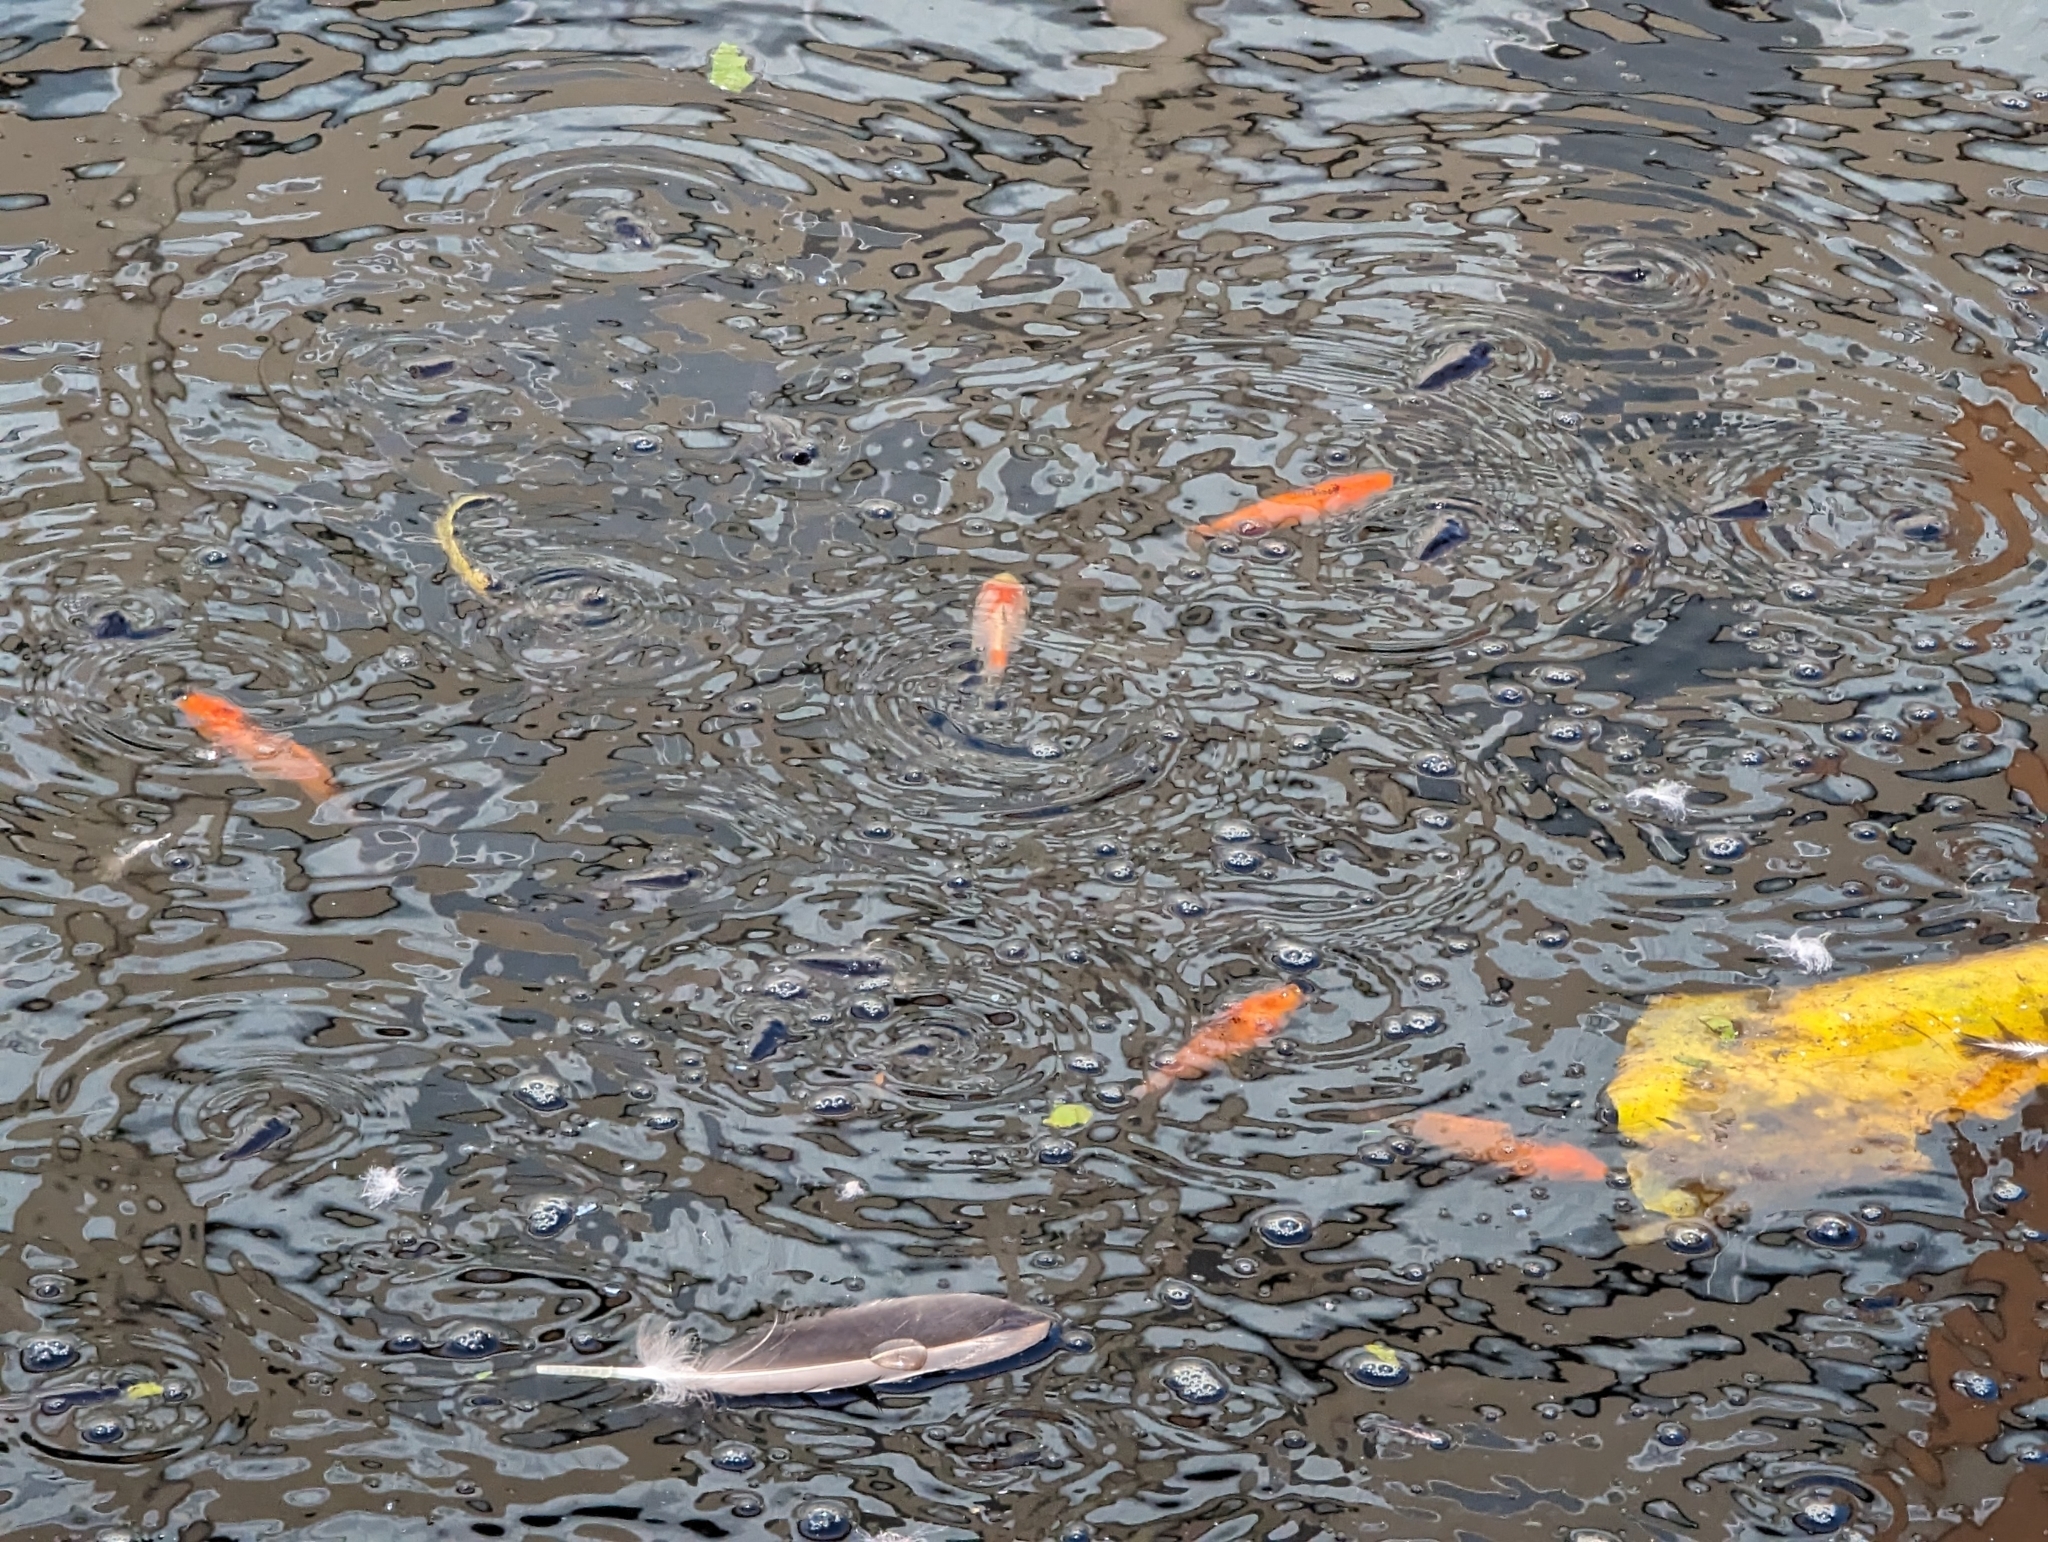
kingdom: Animalia
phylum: Chordata
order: Cypriniformes
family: Cyprinidae
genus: Carassius
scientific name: Carassius auratus
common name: Goldfish
